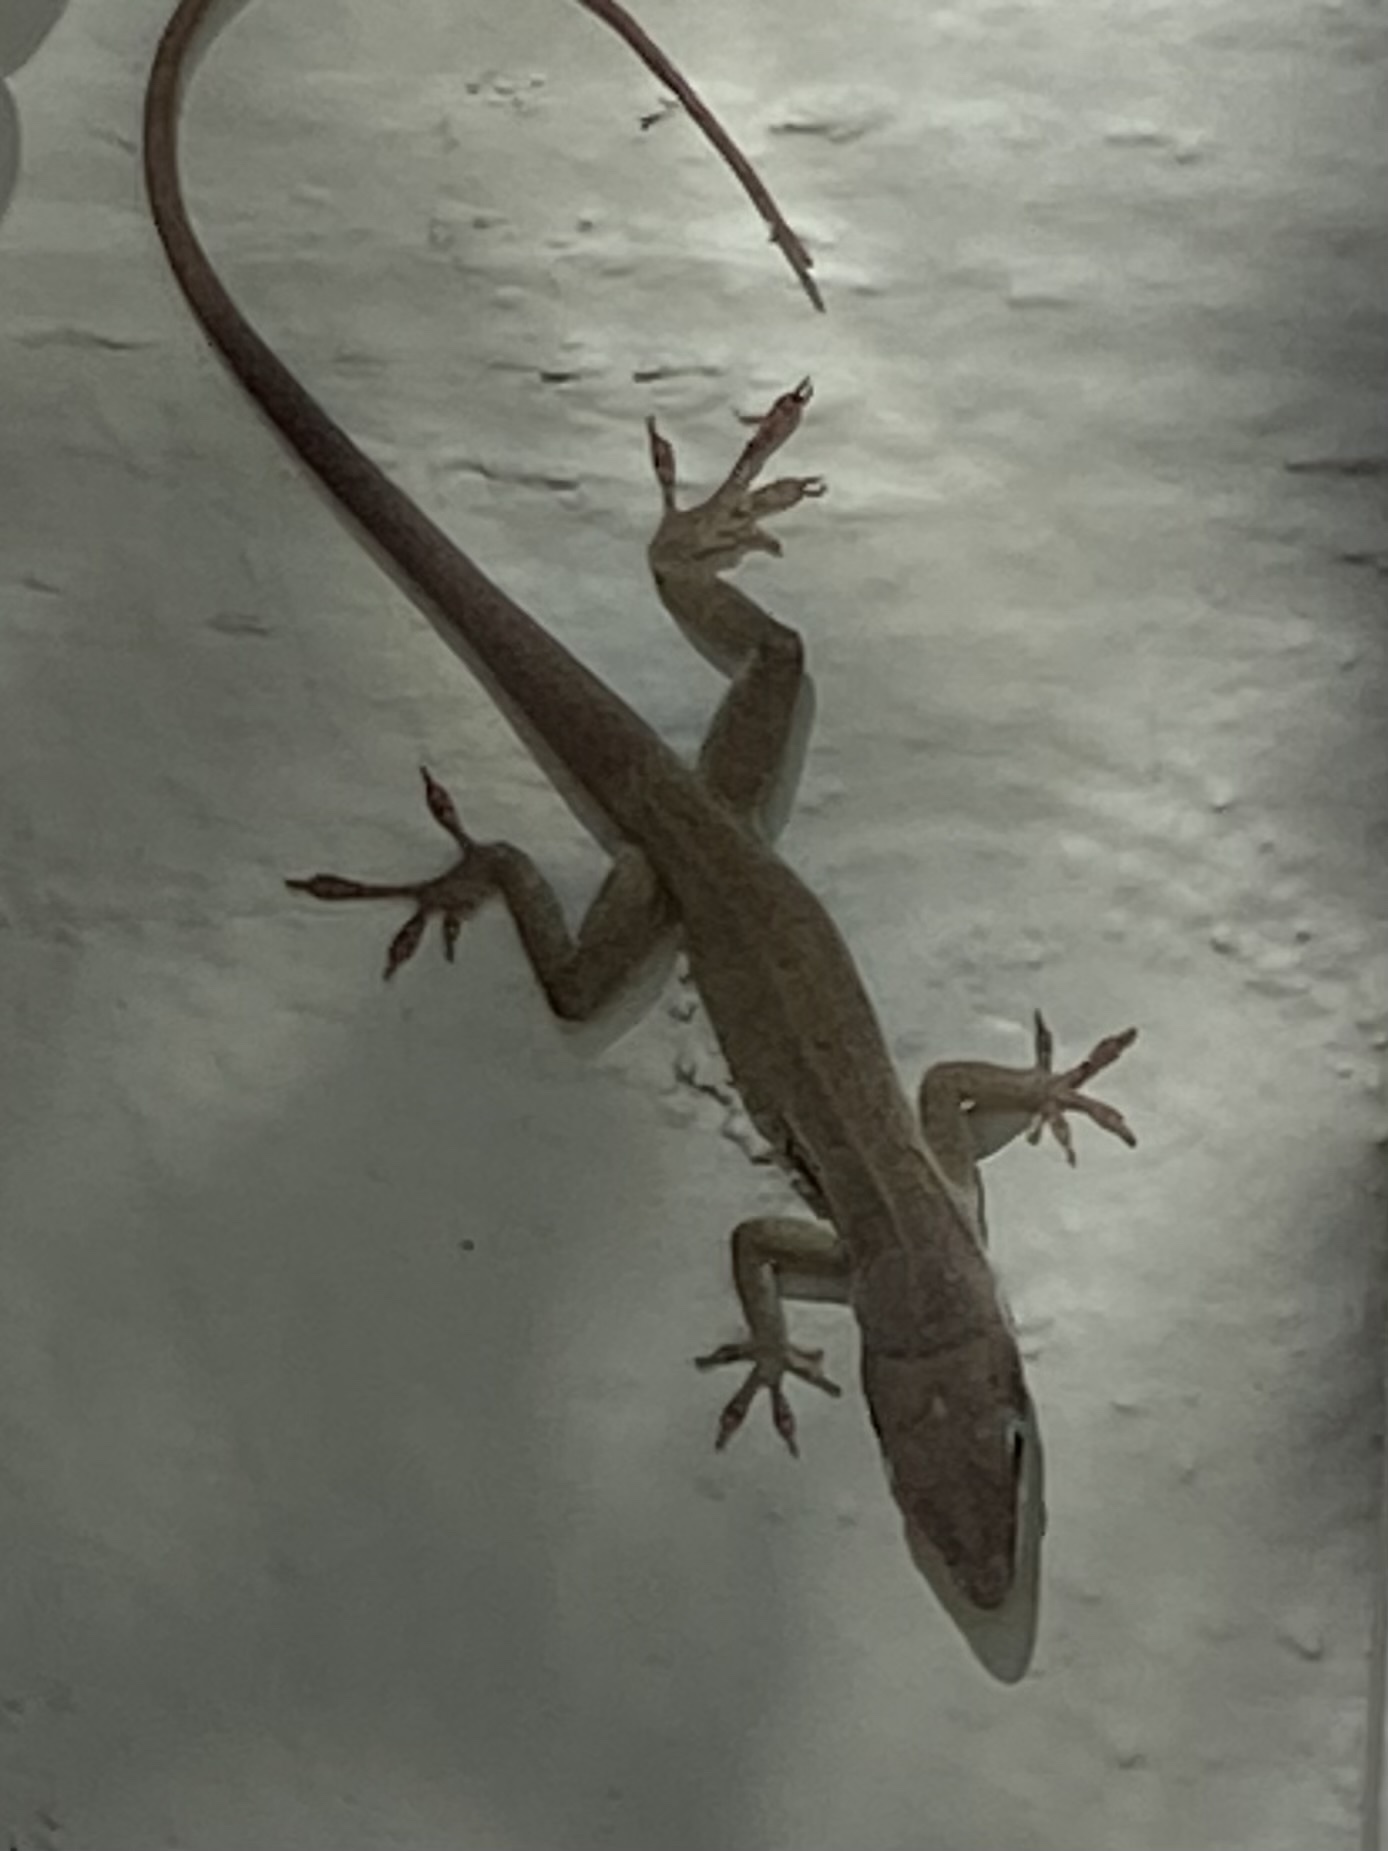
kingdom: Animalia
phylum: Chordata
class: Squamata
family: Dactyloidae
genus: Anolis
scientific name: Anolis carolinensis
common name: Green anole
